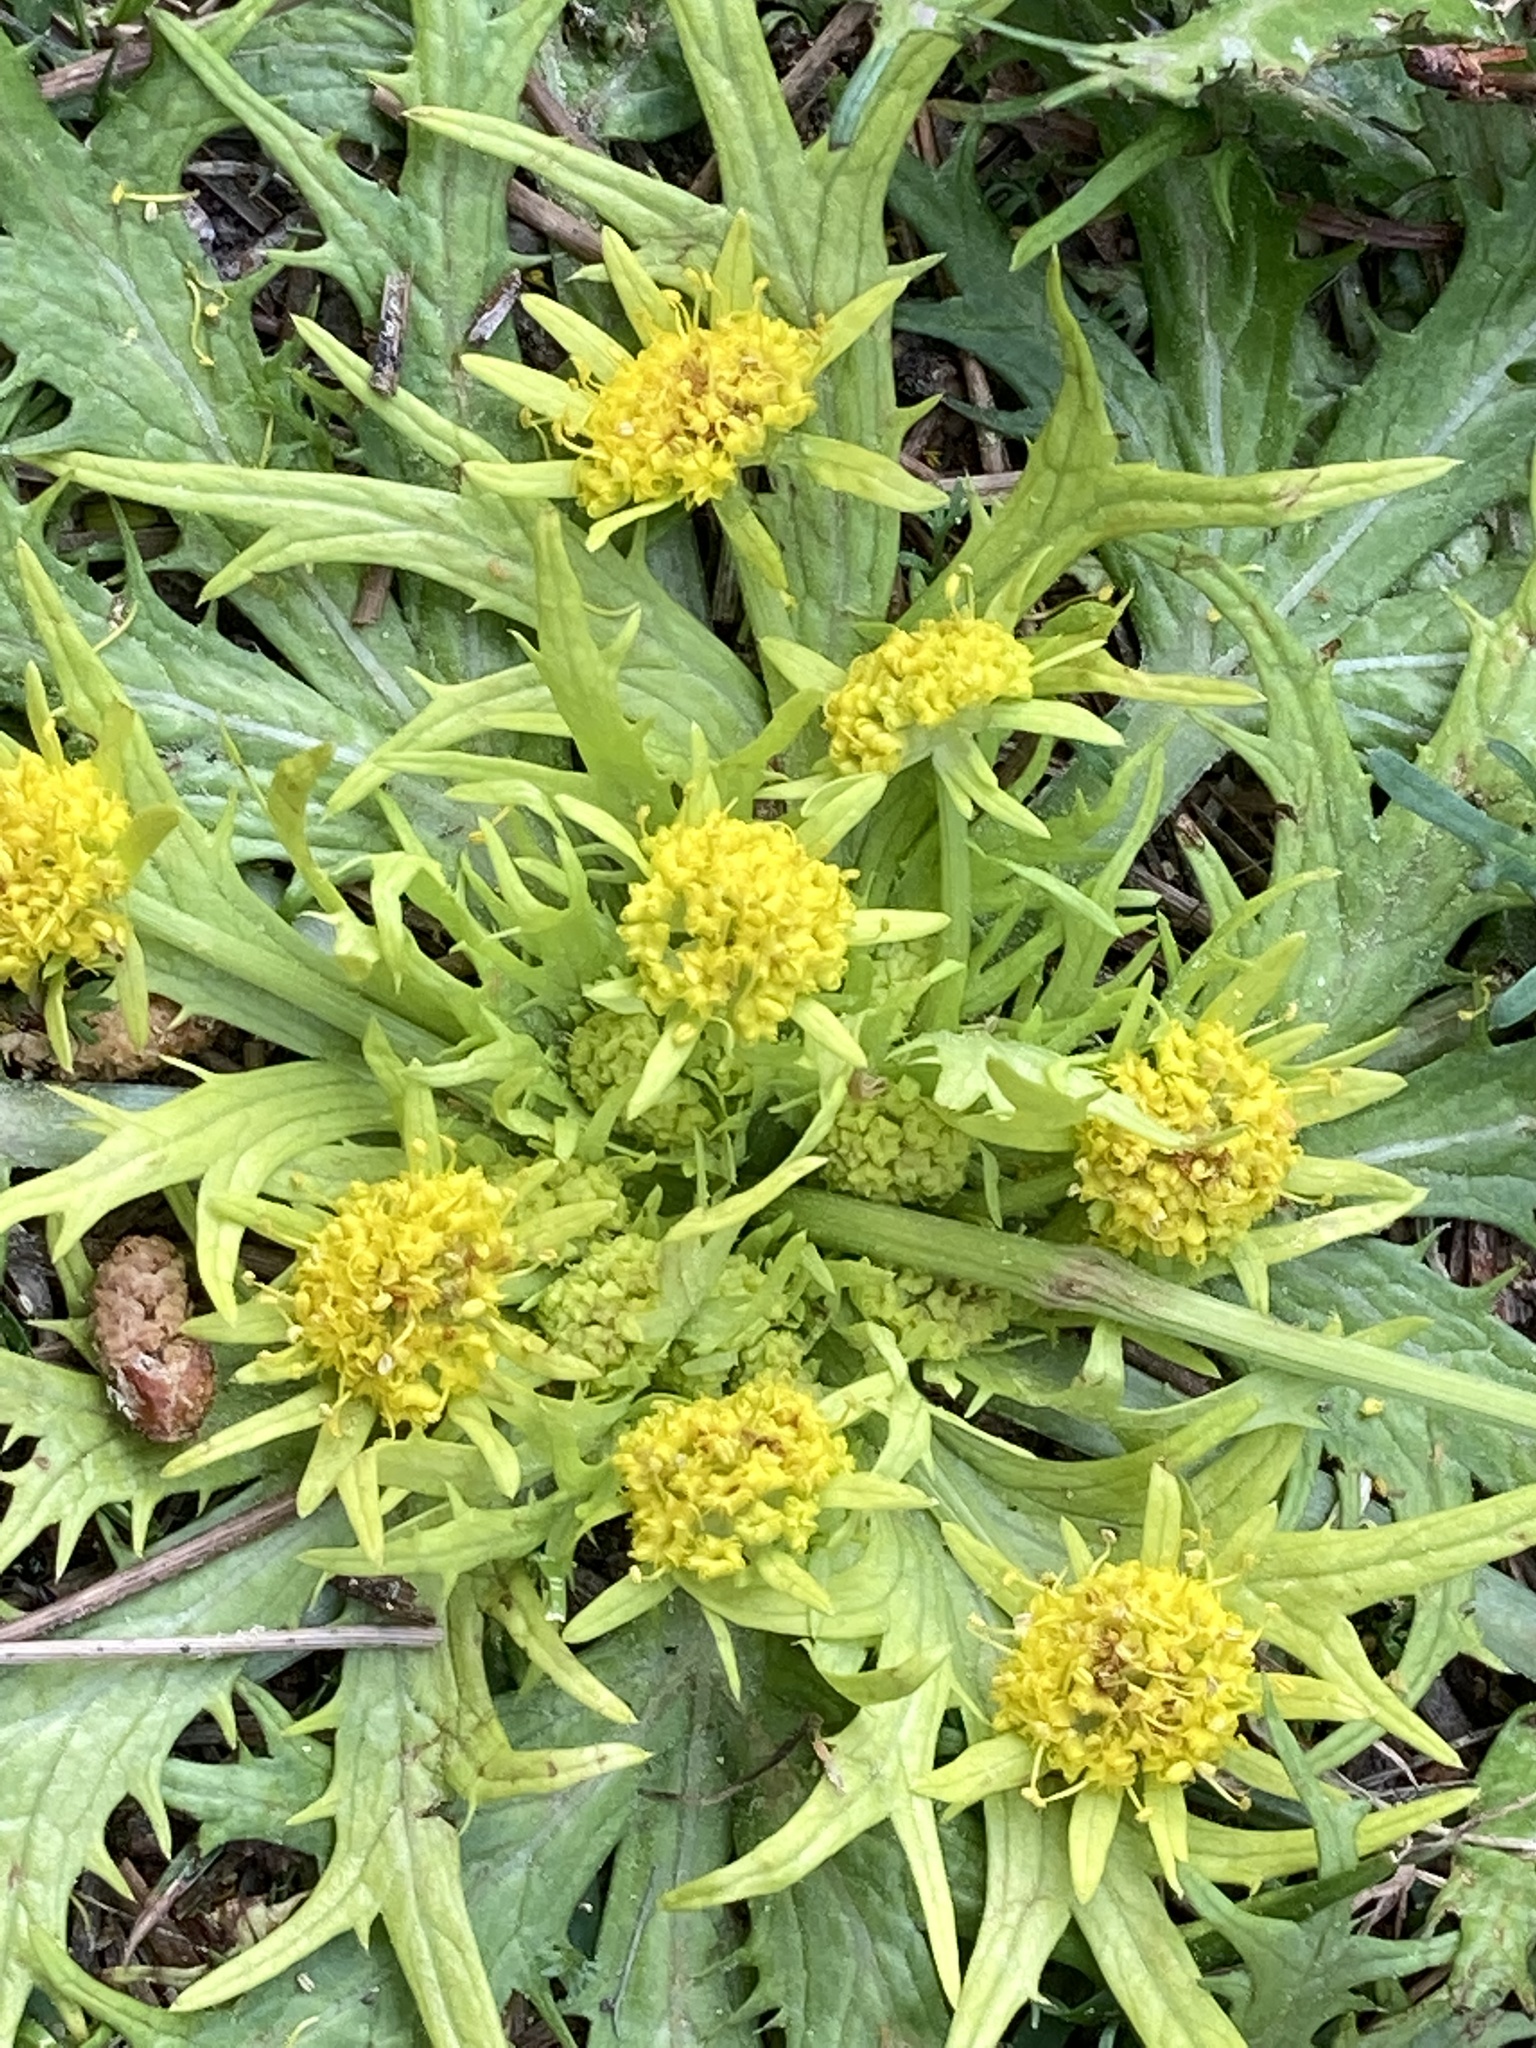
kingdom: Plantae
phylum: Tracheophyta
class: Magnoliopsida
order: Apiales
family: Apiaceae
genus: Sanicula
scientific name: Sanicula arctopoides
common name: Footsteps-of-spring
